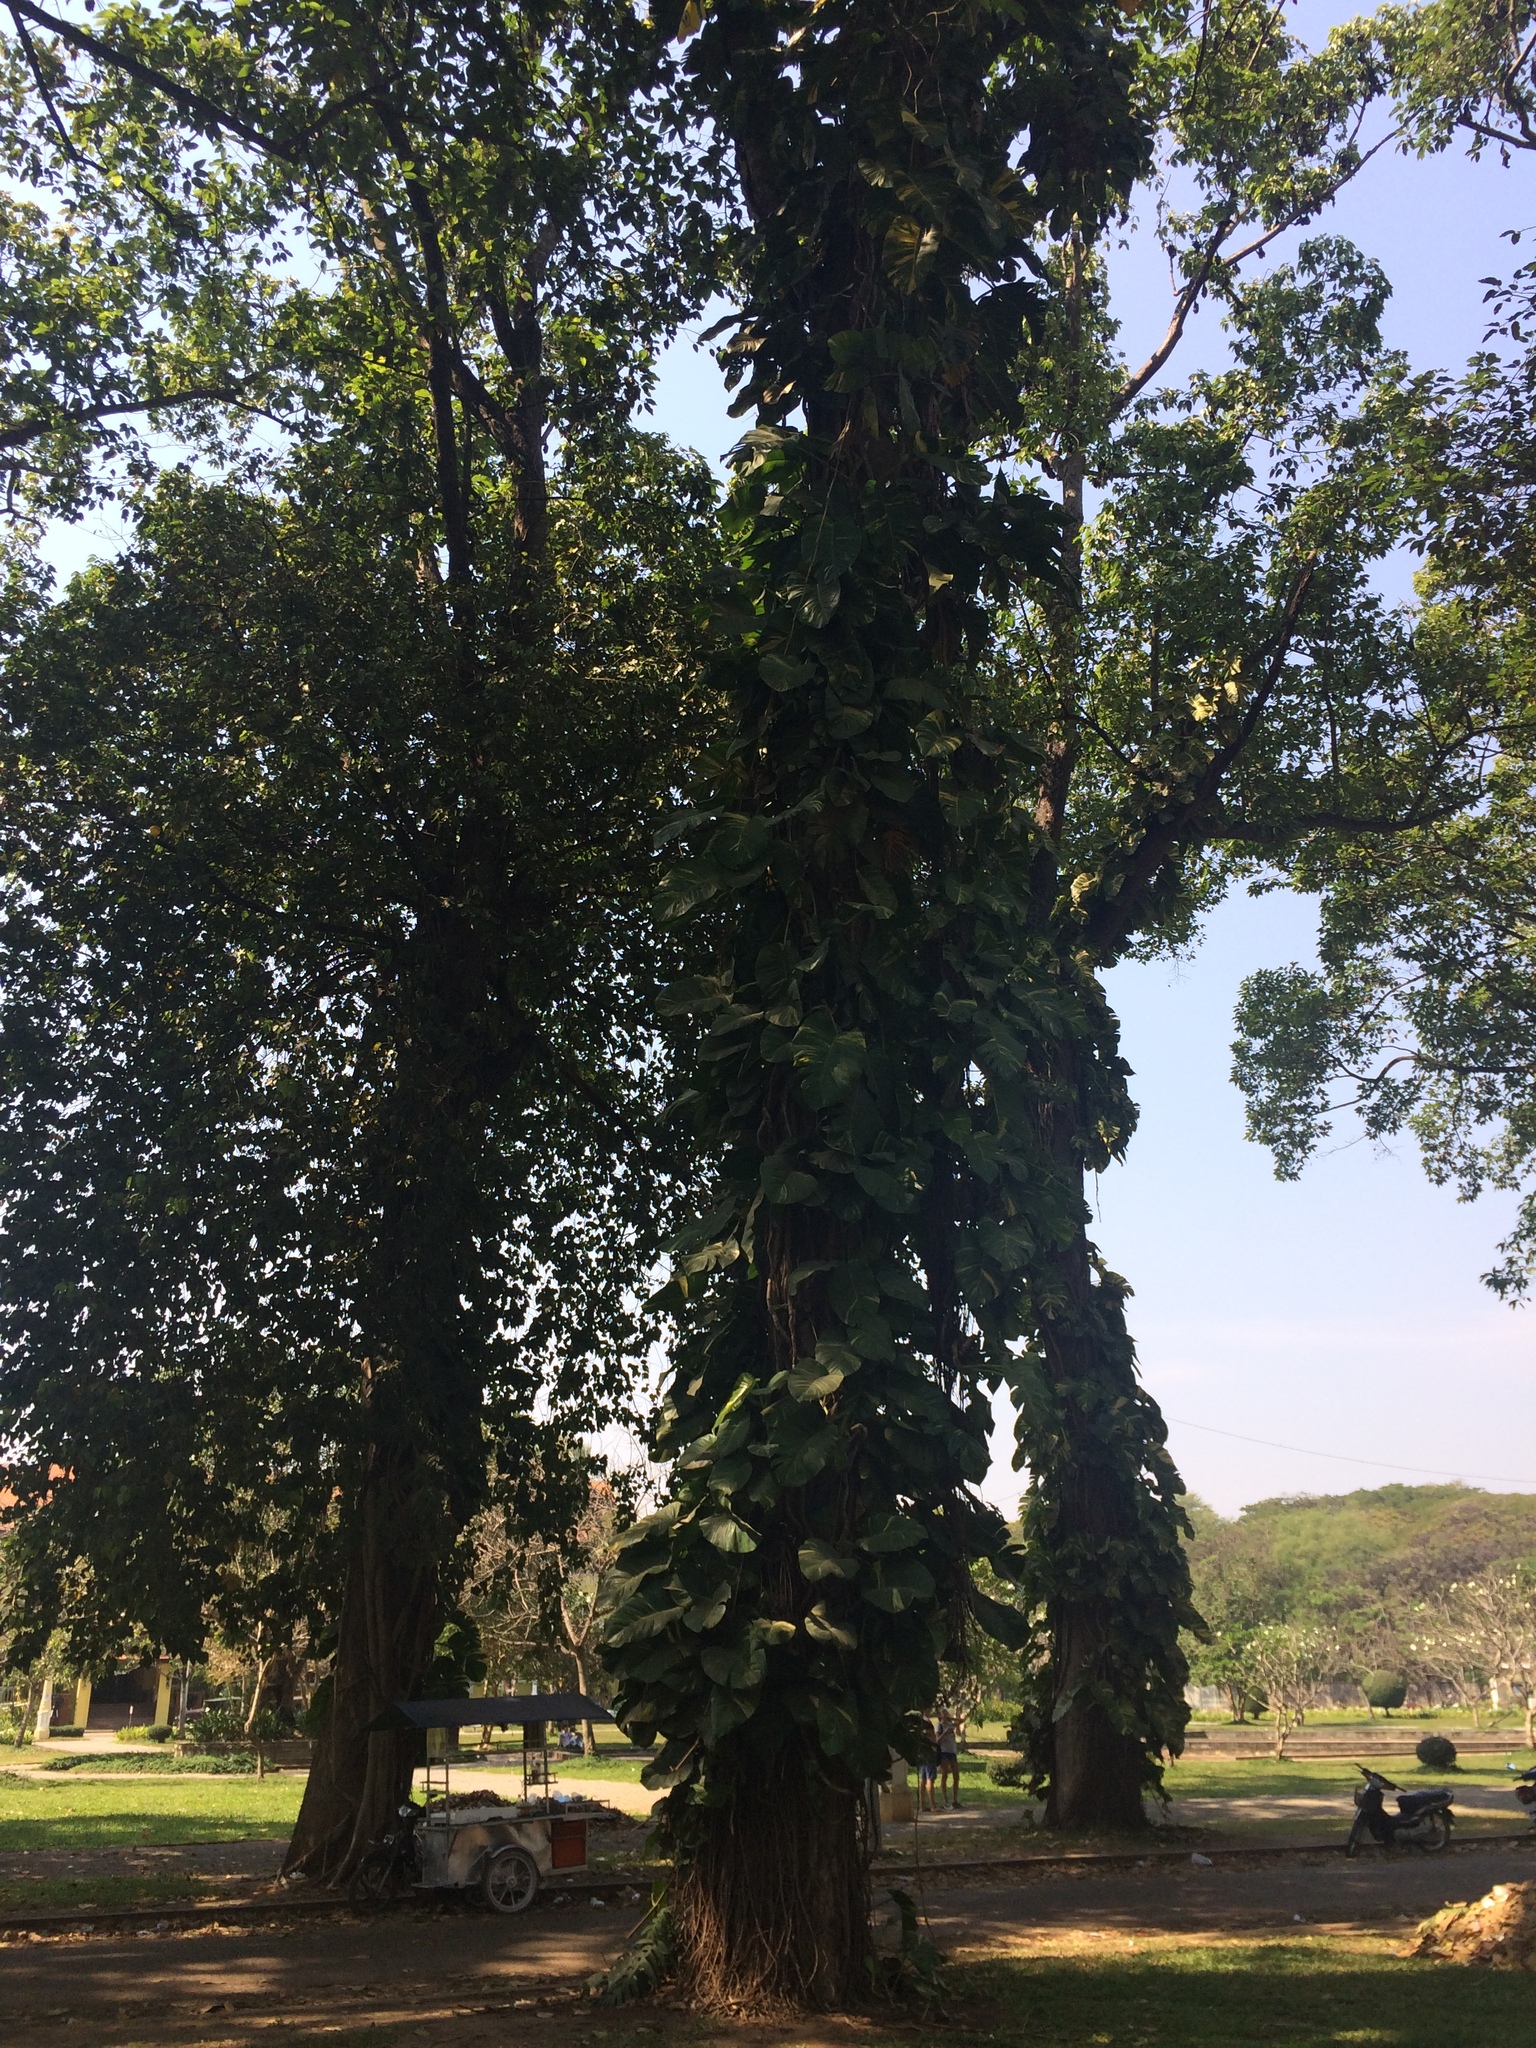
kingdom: Plantae
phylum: Tracheophyta
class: Liliopsida
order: Alismatales
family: Araceae
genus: Epipremnum
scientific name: Epipremnum aureum
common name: Golden hunter's-robe
